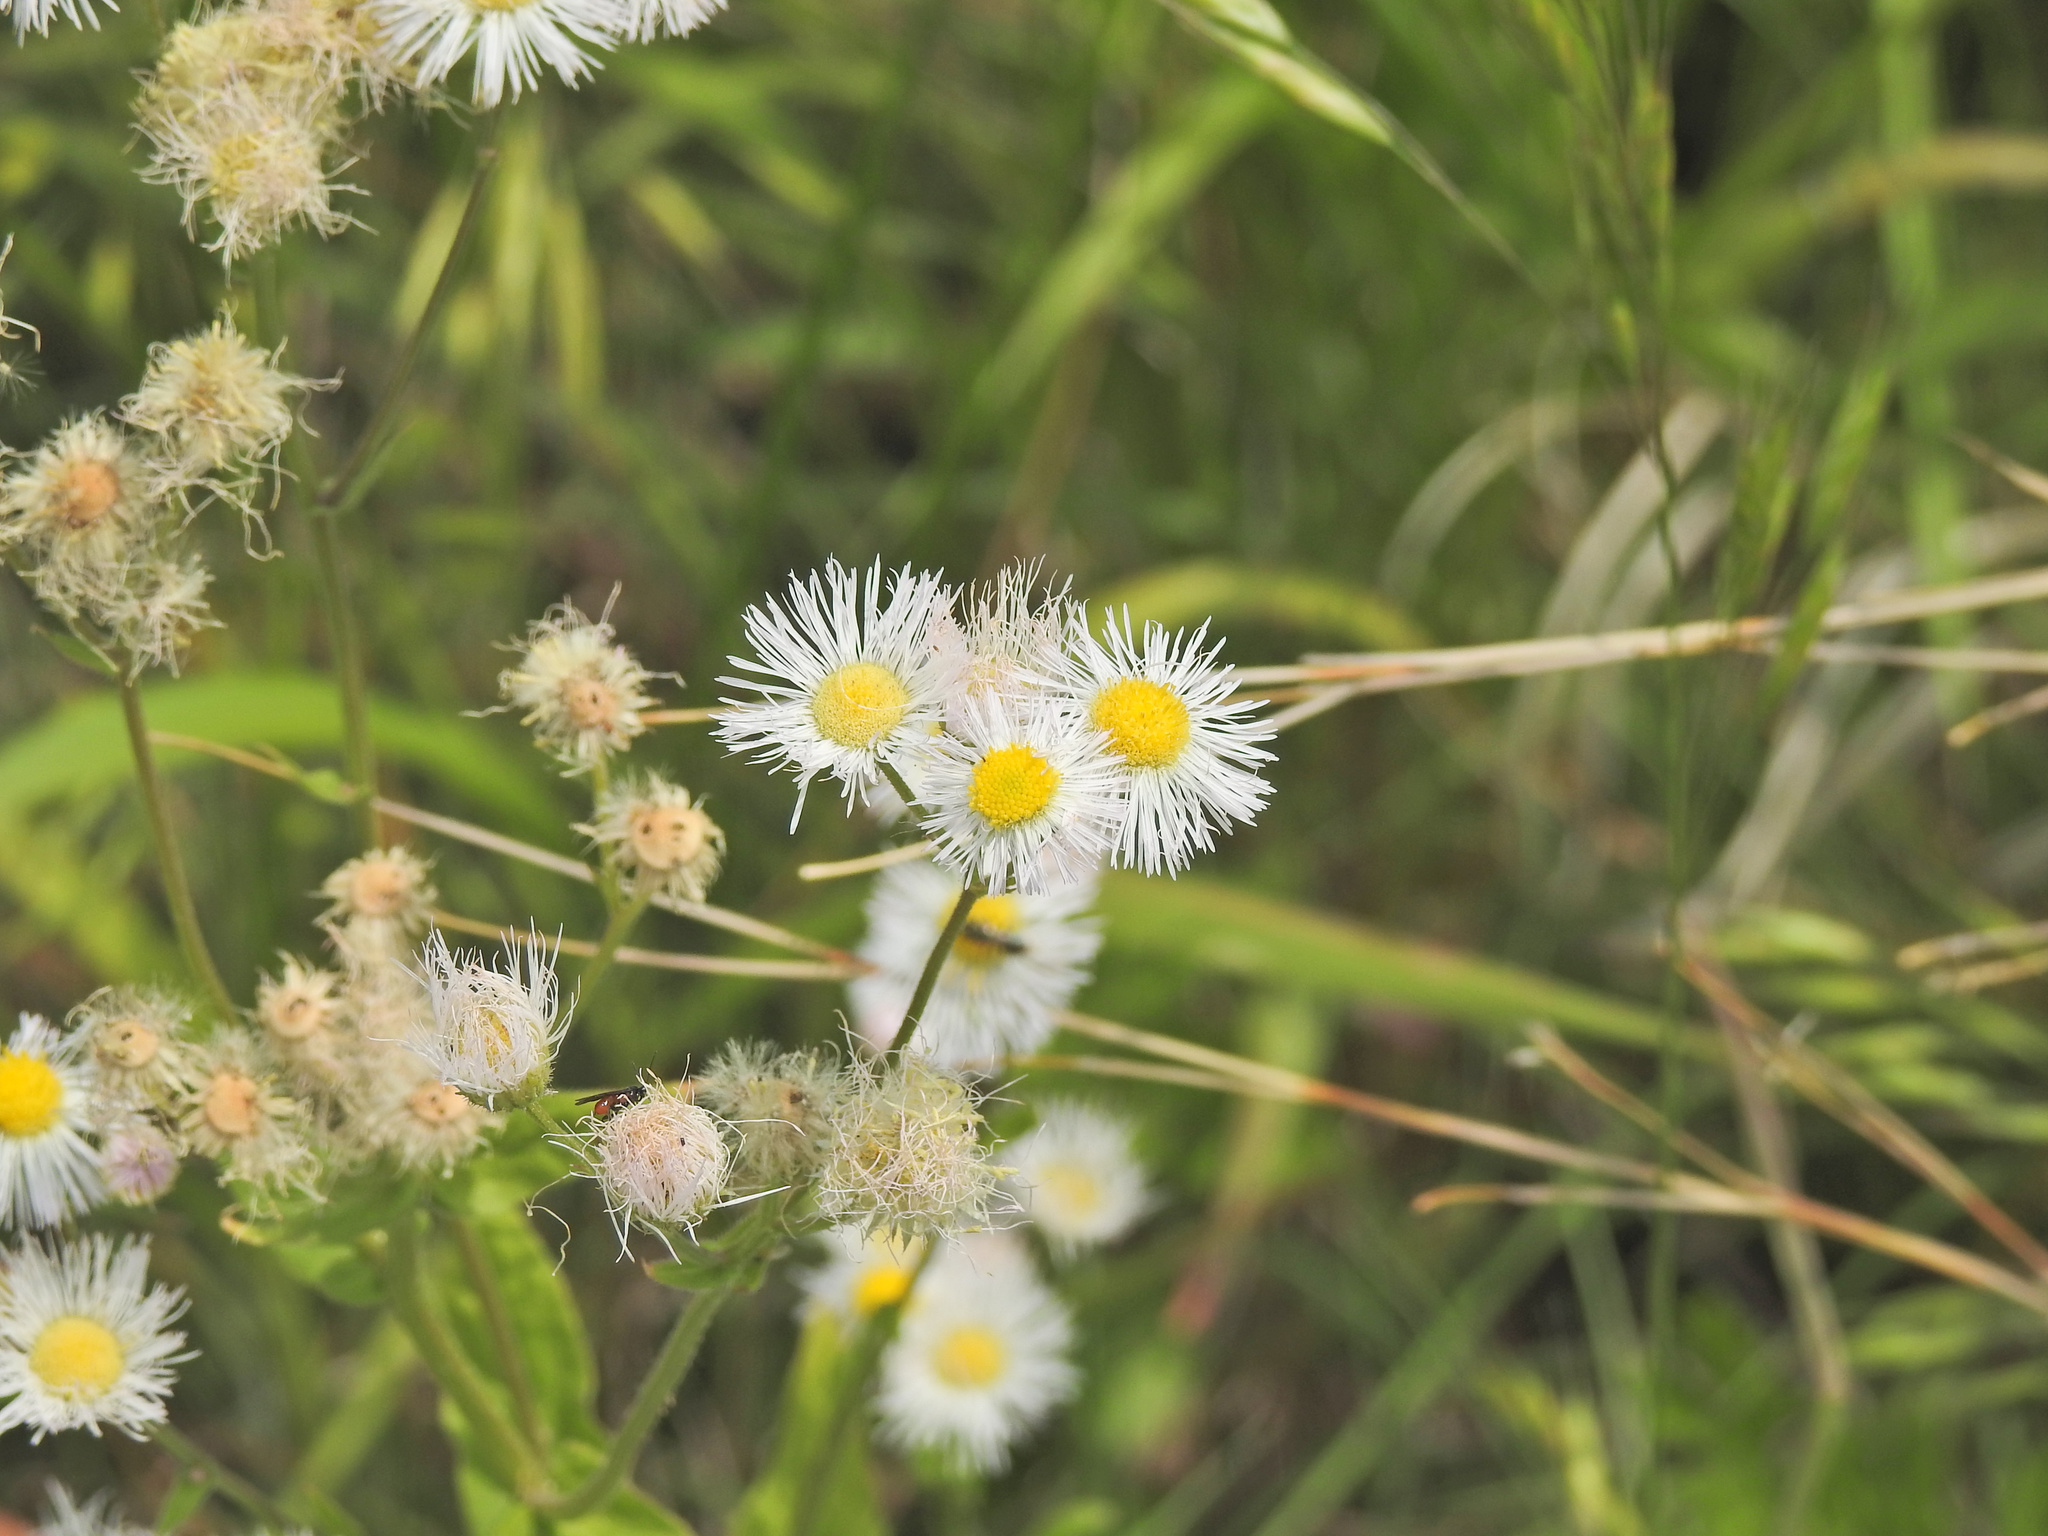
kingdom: Plantae
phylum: Tracheophyta
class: Magnoliopsida
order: Asterales
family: Asteraceae
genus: Erigeron
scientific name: Erigeron philadelphicus
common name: Robin's-plantain
